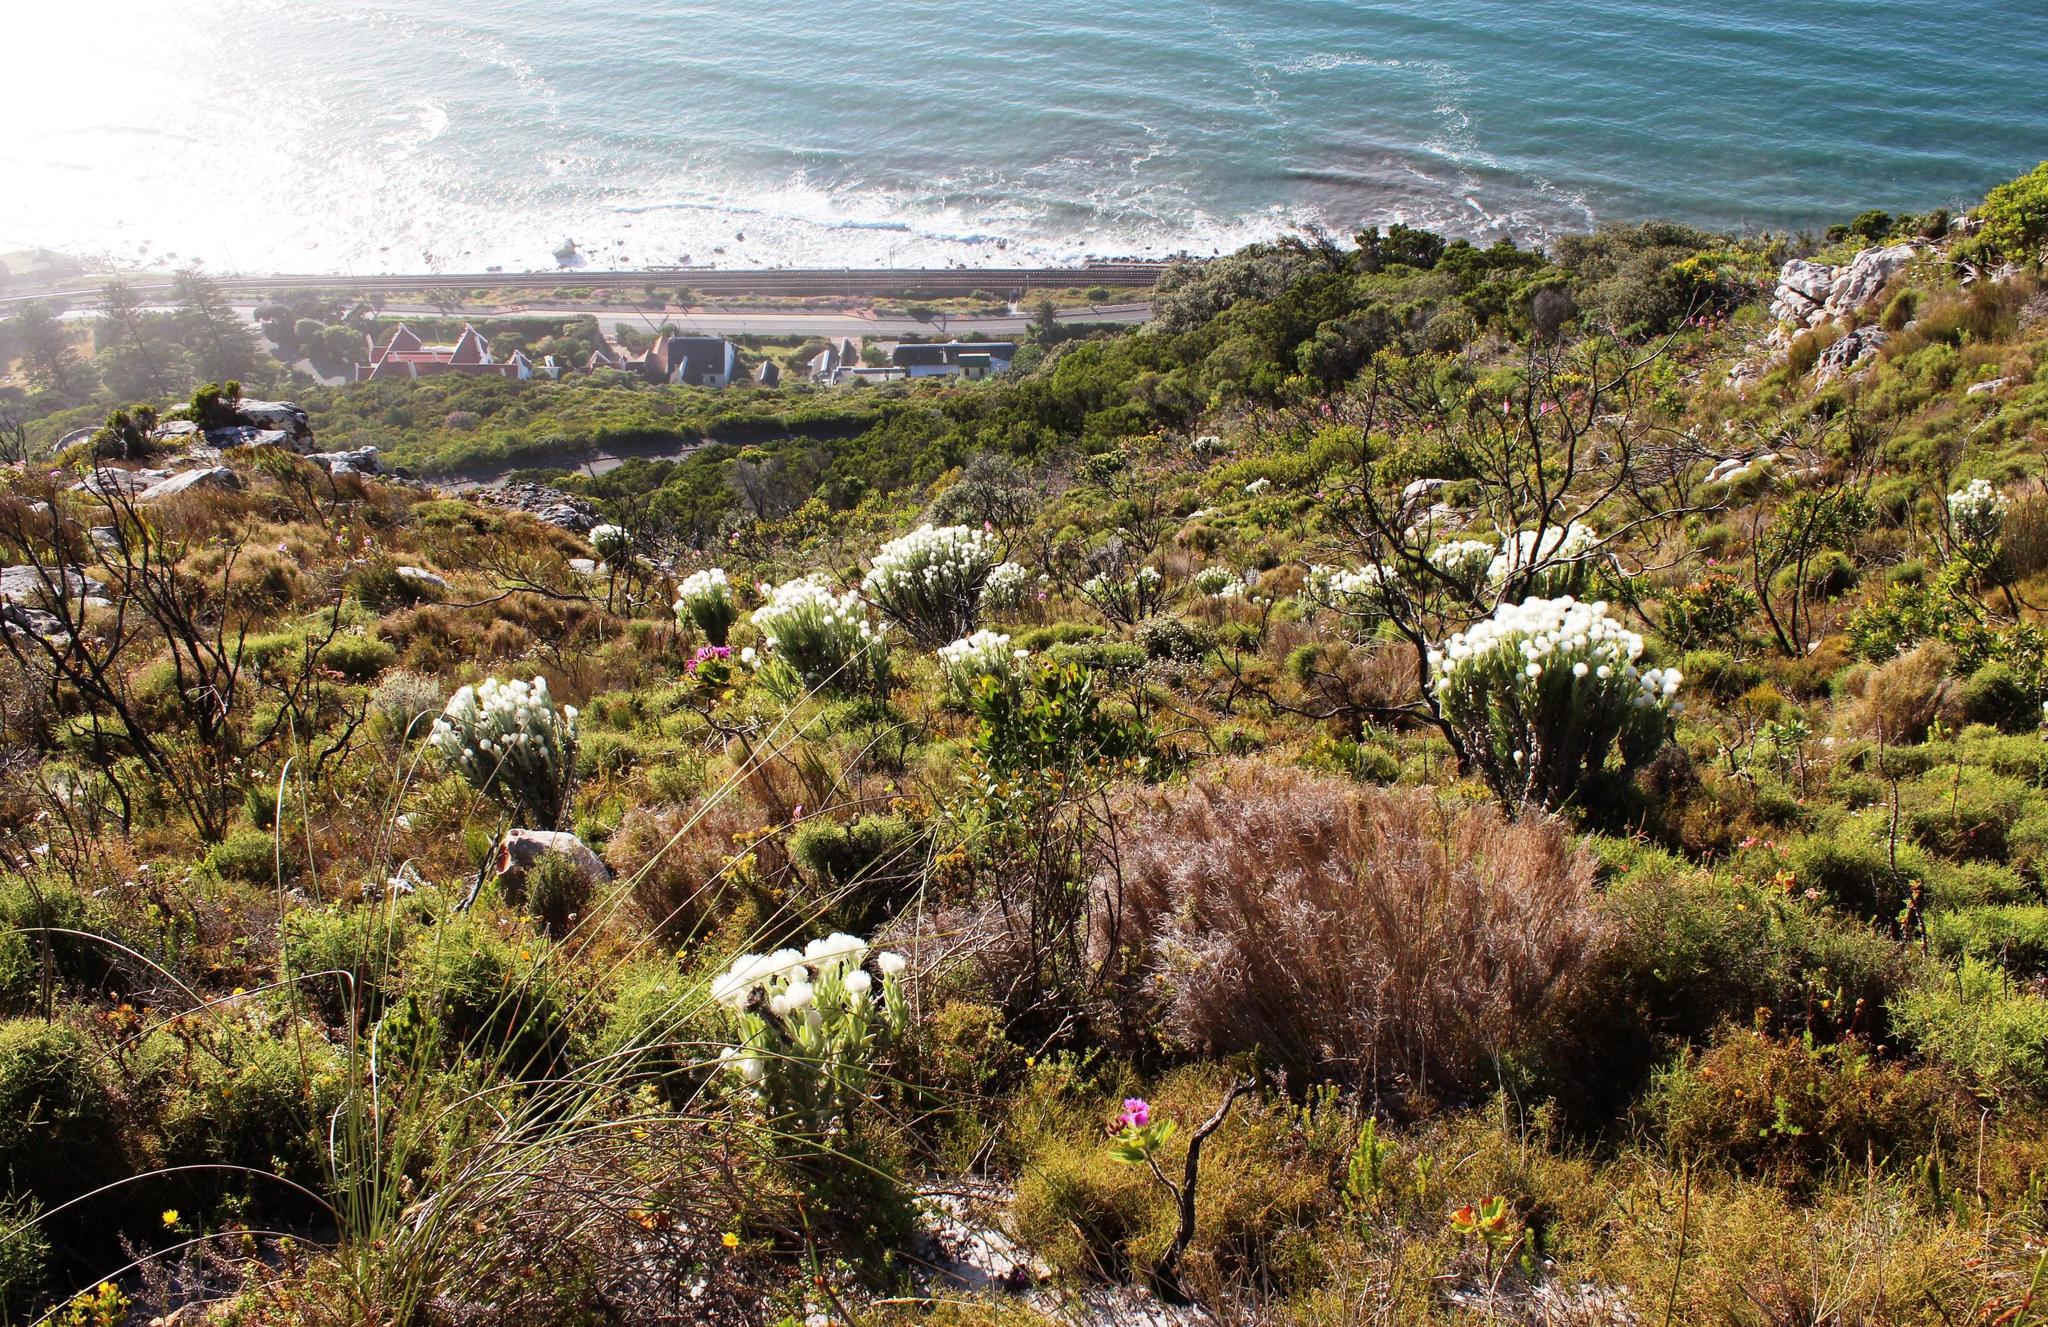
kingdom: Plantae
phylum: Tracheophyta
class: Magnoliopsida
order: Asterales
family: Asteraceae
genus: Syncarpha
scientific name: Syncarpha vestita
